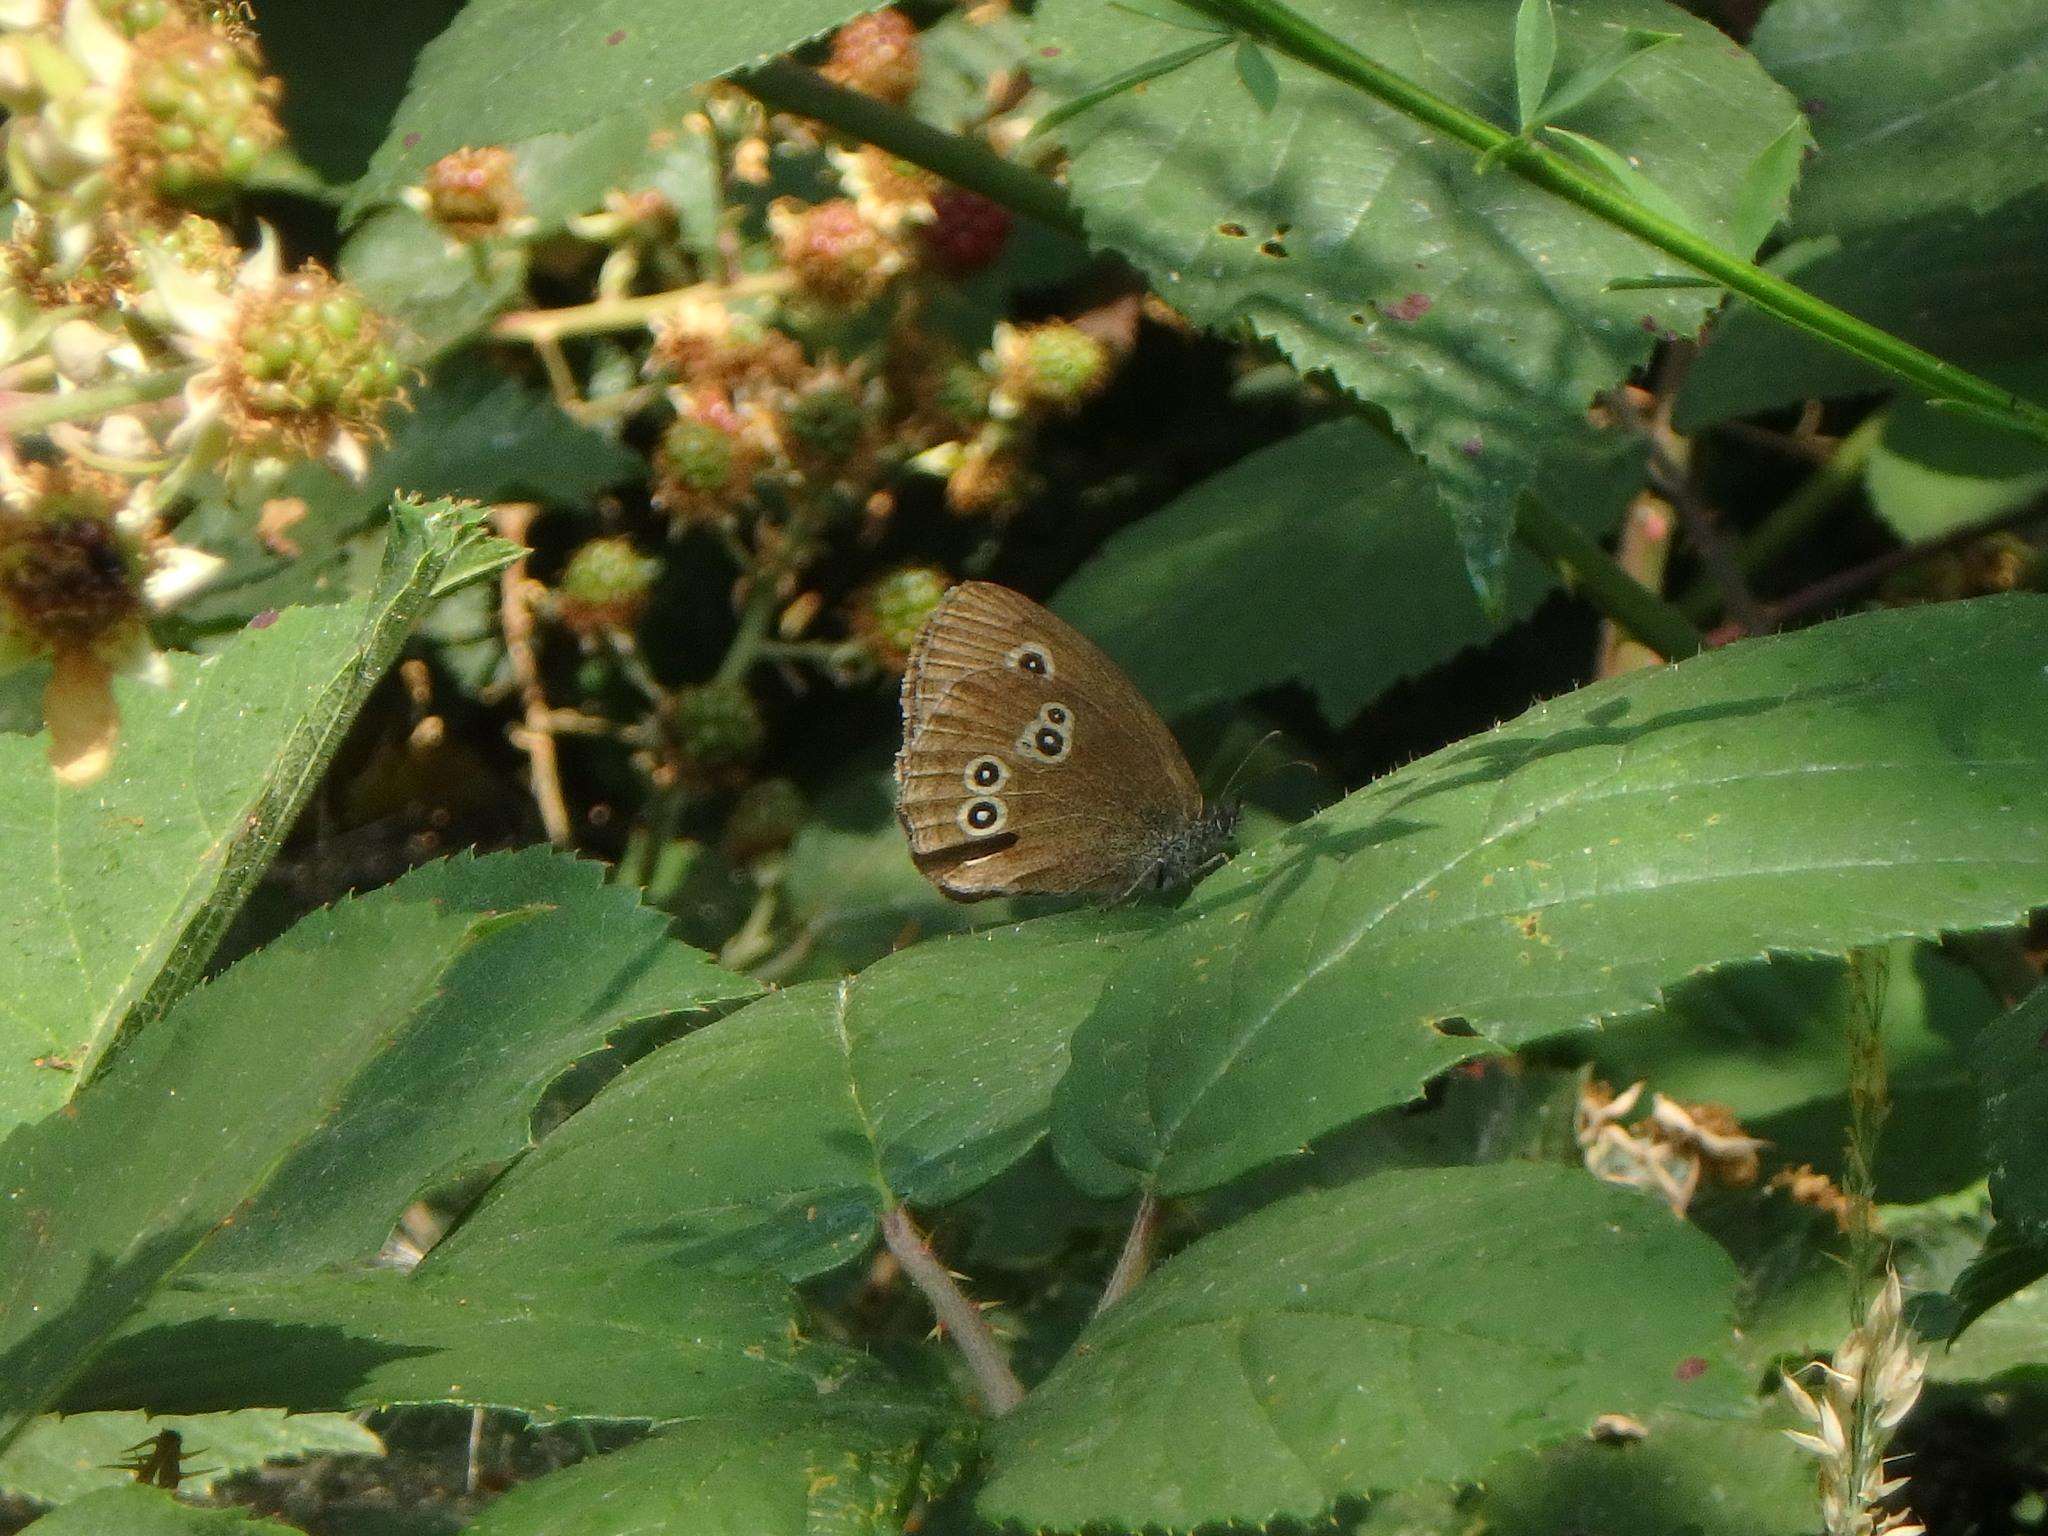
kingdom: Animalia
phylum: Arthropoda
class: Insecta
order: Lepidoptera
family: Nymphalidae
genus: Aphantopus
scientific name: Aphantopus hyperantus
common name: Ringlet
